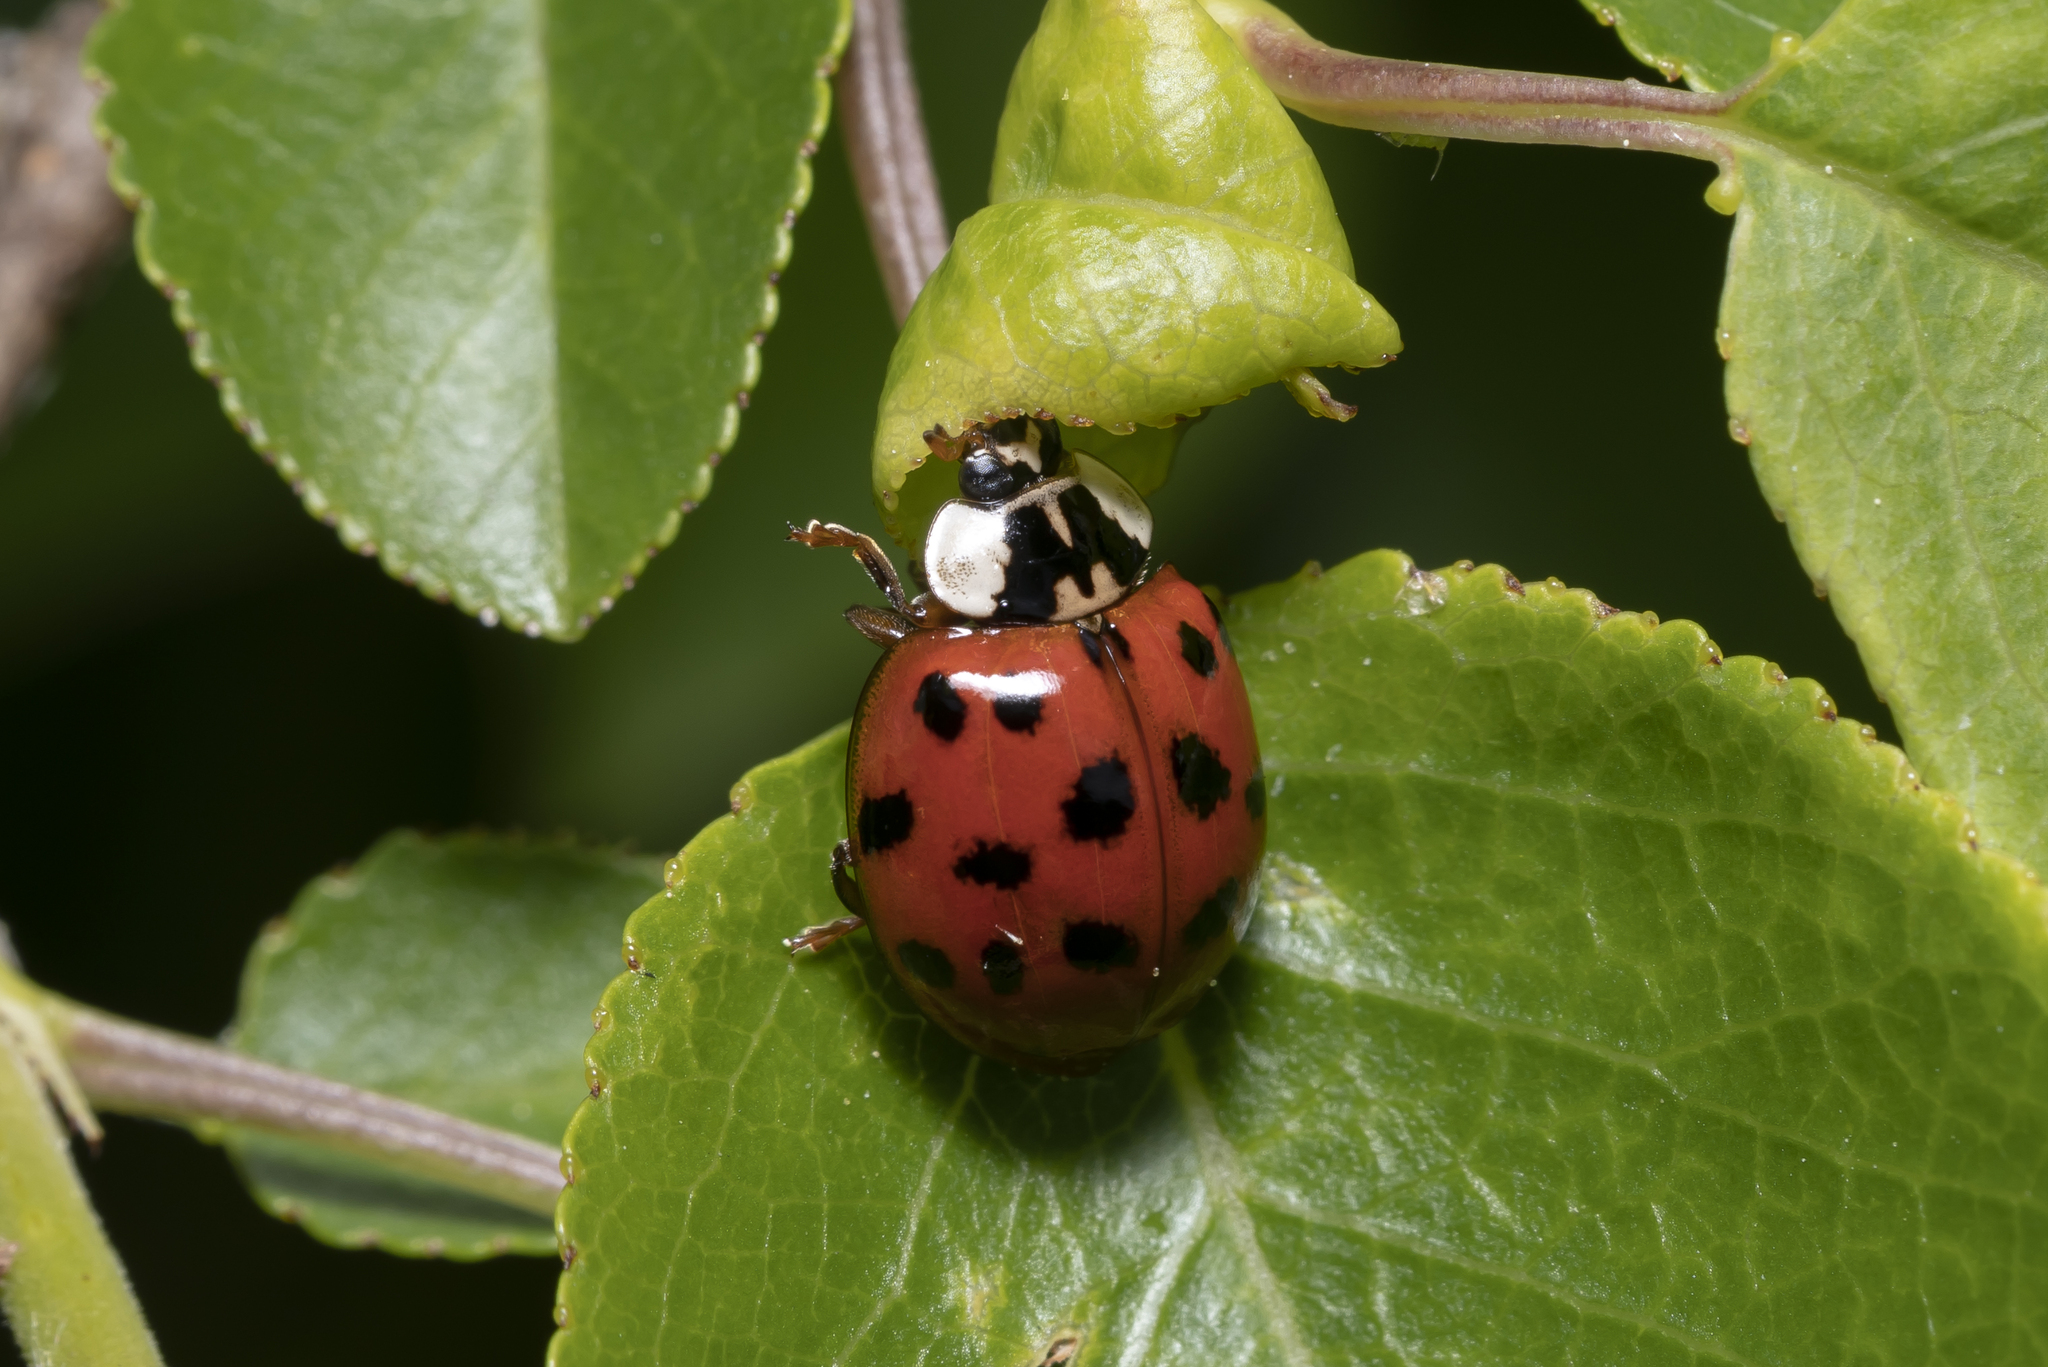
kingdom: Animalia
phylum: Arthropoda
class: Insecta
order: Coleoptera
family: Coccinellidae
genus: Harmonia
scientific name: Harmonia axyridis
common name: Harlequin ladybird
